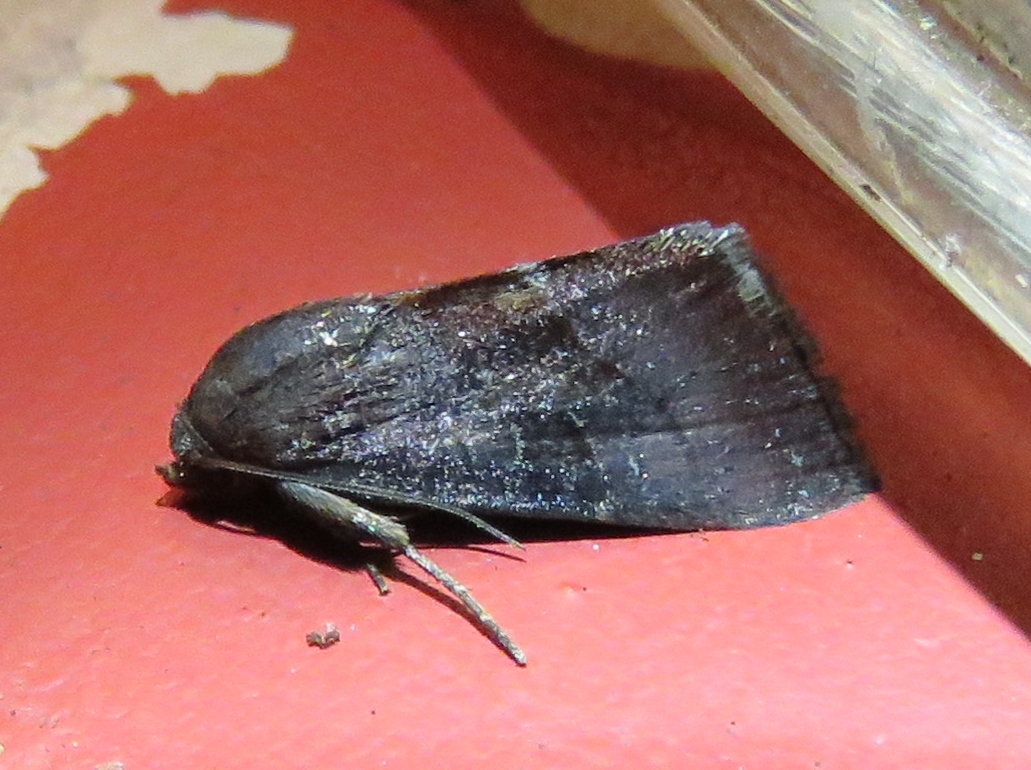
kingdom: Animalia
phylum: Arthropoda
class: Insecta
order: Lepidoptera
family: Noctuidae
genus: Galgula
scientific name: Galgula partita
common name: Wedgeling
